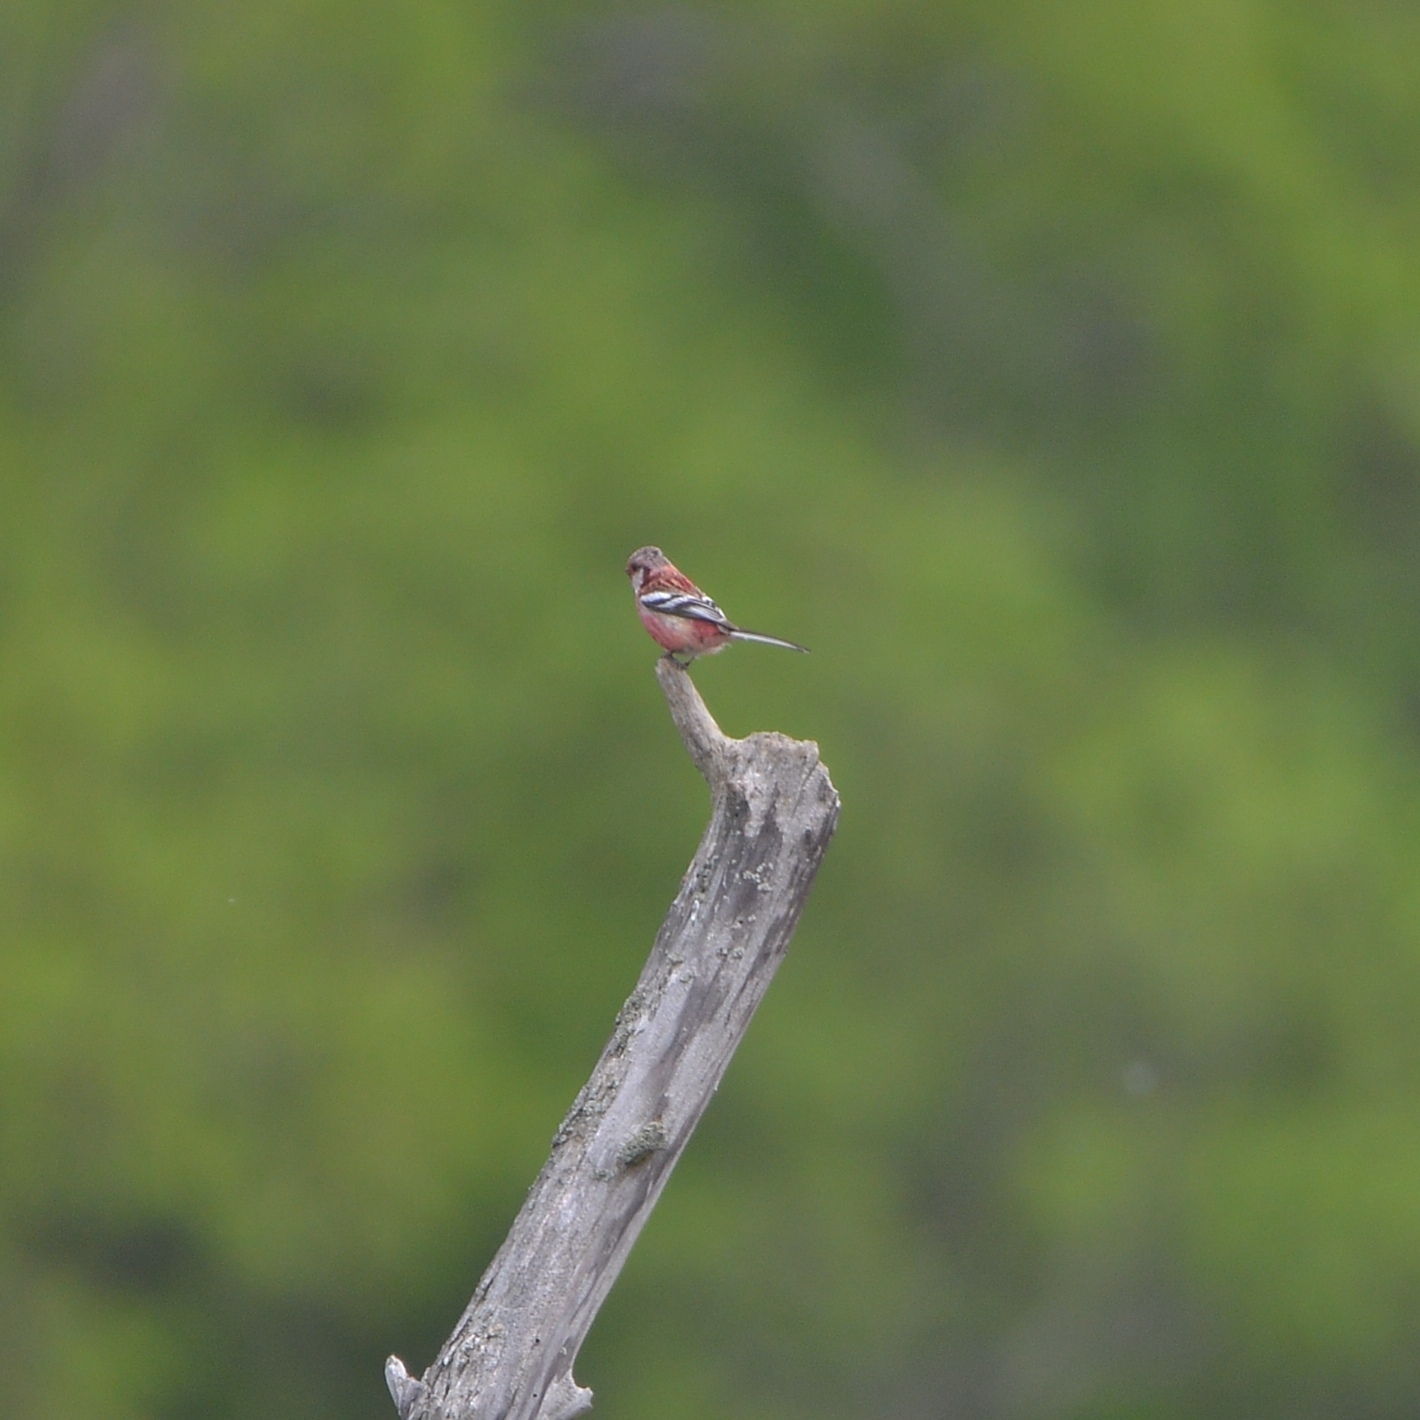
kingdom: Animalia
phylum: Chordata
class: Aves
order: Passeriformes
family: Fringillidae
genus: Carpodacus
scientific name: Carpodacus sibiricus
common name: Long-tailed rosefinch
